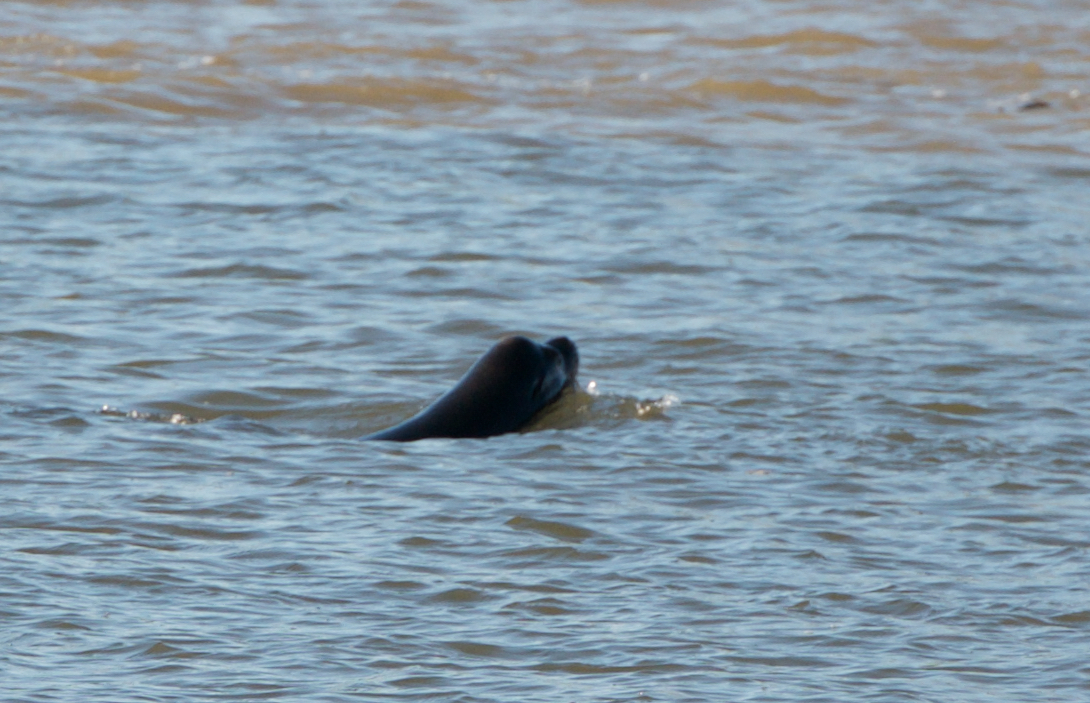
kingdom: Animalia
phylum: Chordata
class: Mammalia
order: Carnivora
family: Otariidae
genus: Zalophus
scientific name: Zalophus californianus
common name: California sea lion
